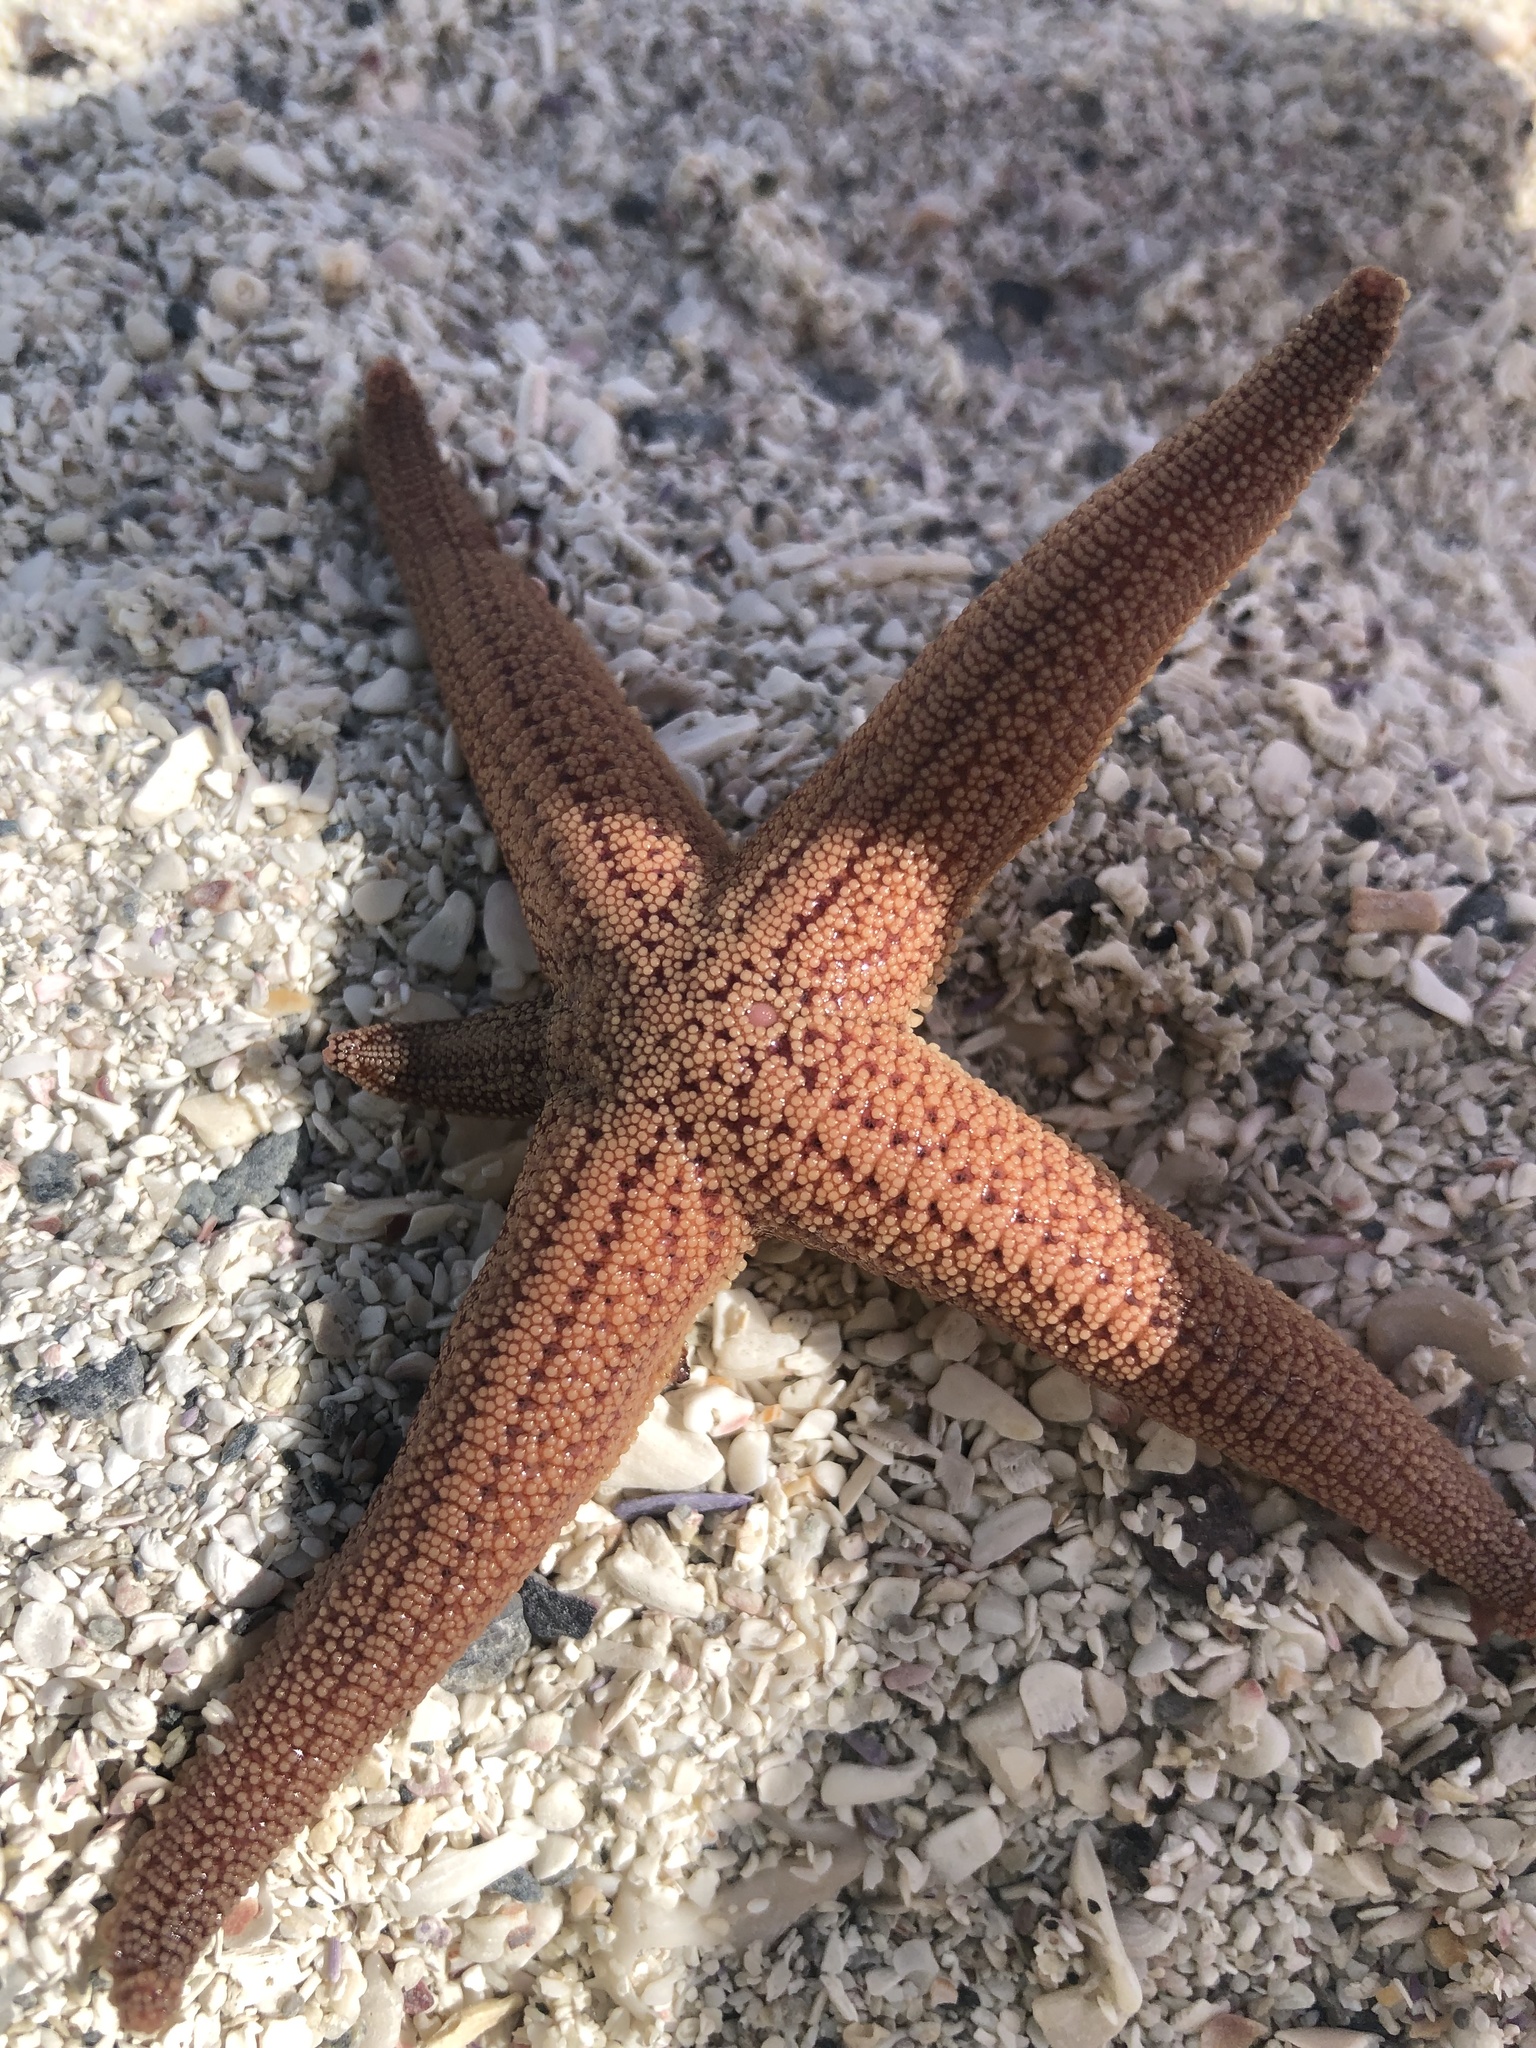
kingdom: Animalia
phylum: Echinodermata
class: Asteroidea
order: Forcipulatida
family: Stichasteridae
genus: Stichaster
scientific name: Stichaster striatus
